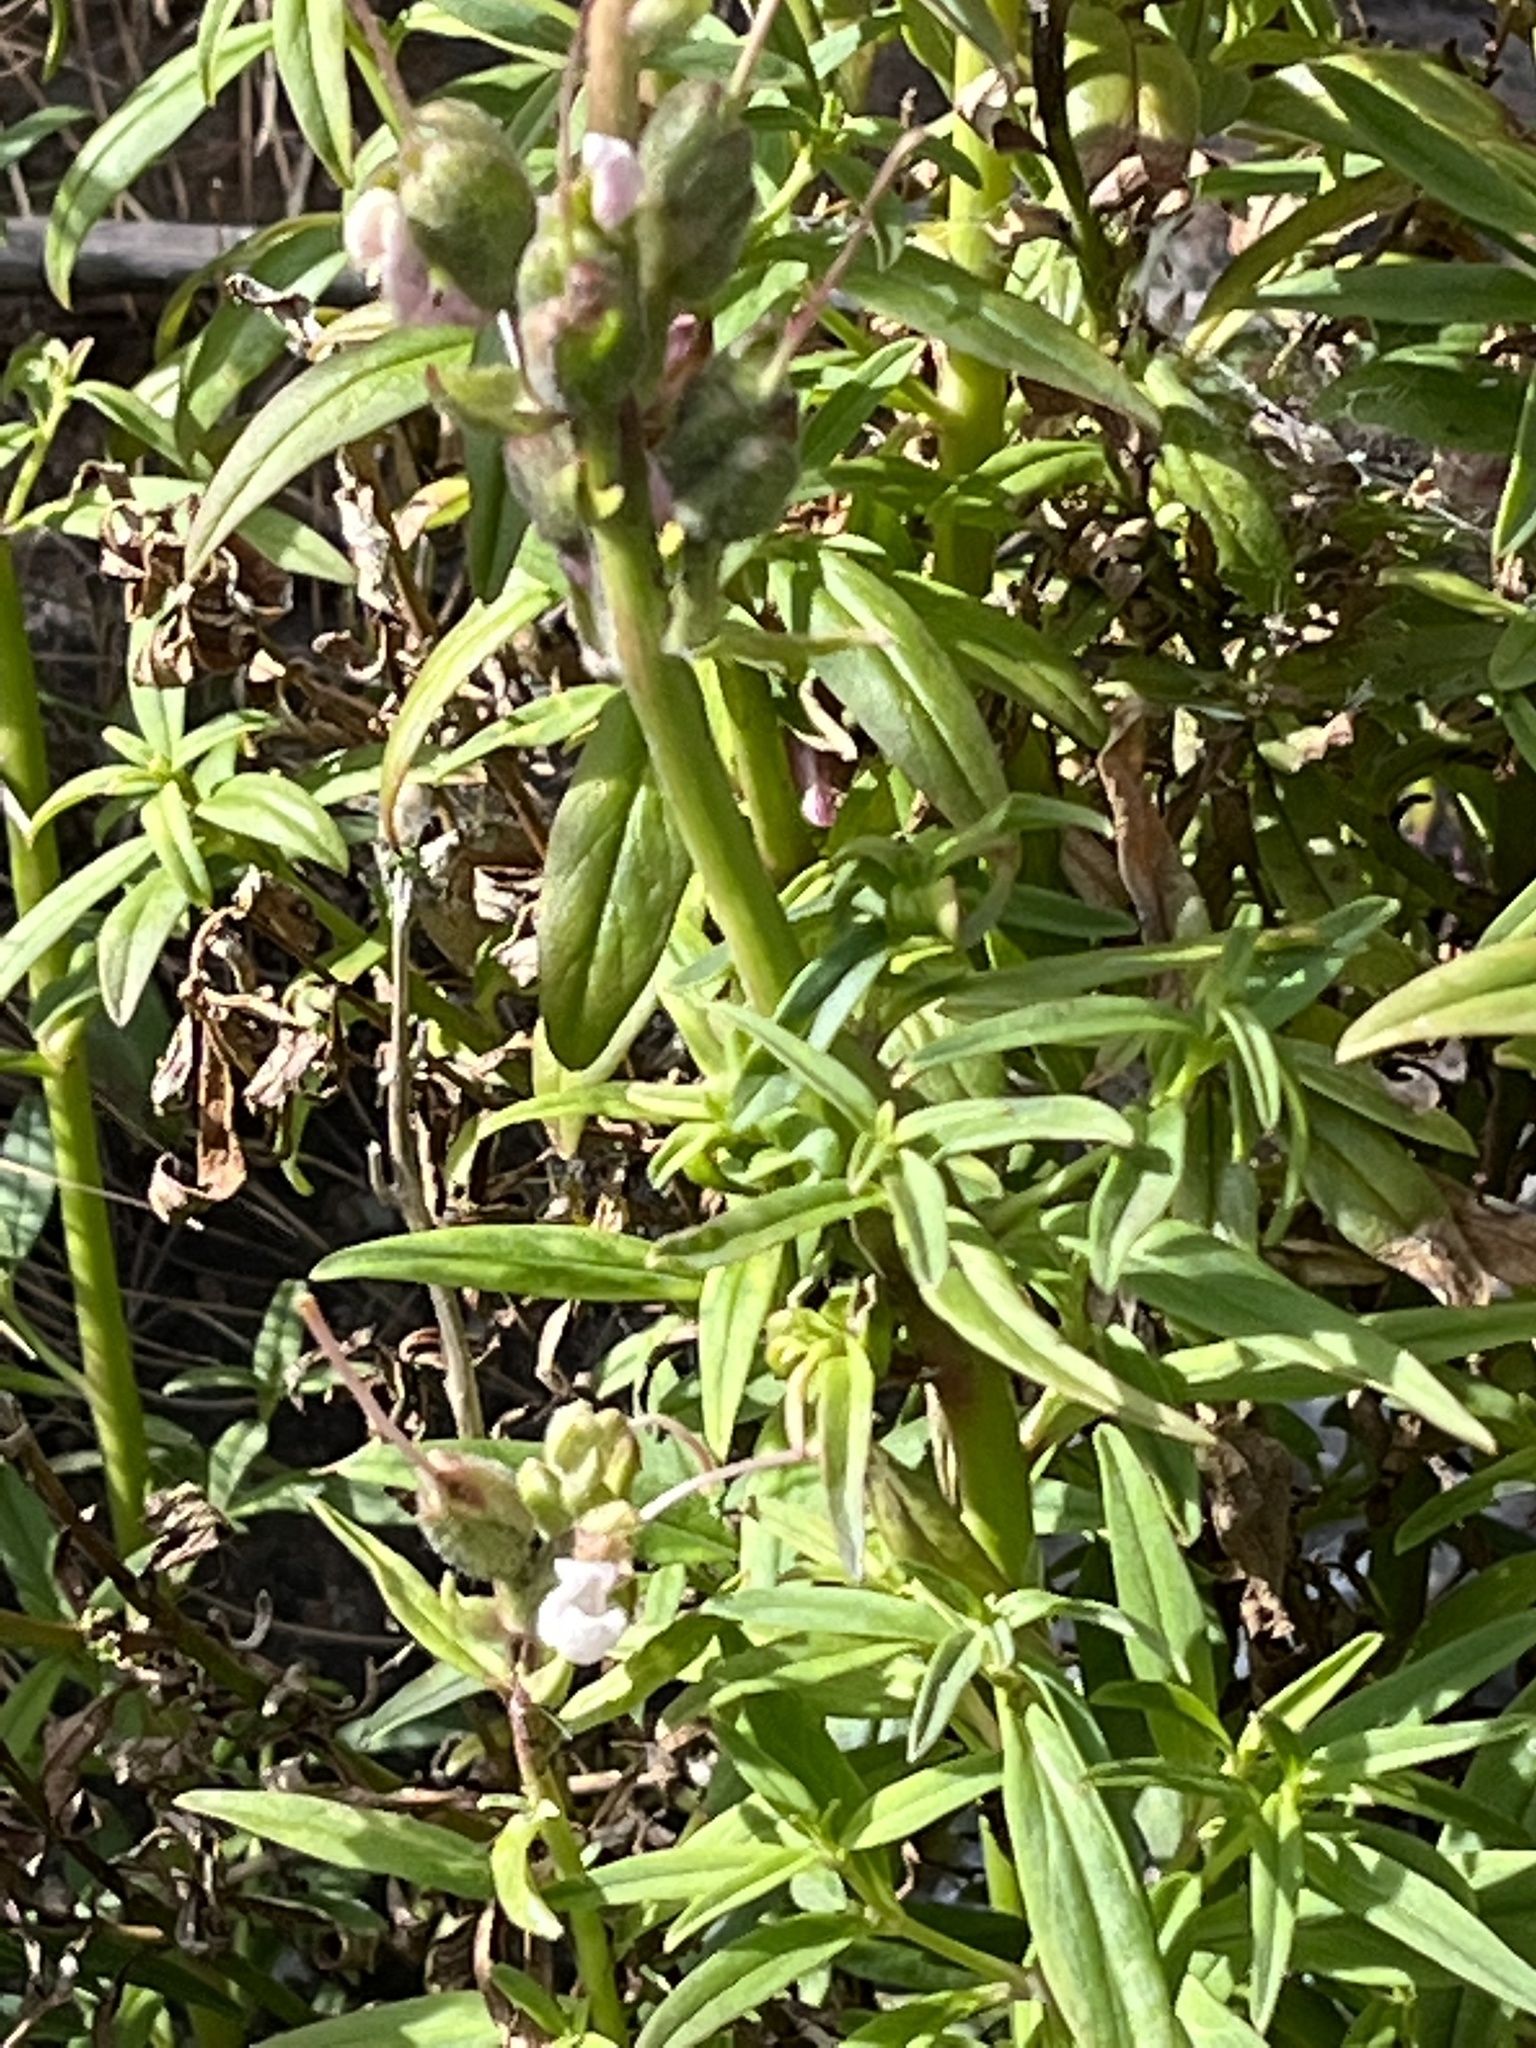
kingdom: Plantae
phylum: Tracheophyta
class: Magnoliopsida
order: Lamiales
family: Plantaginaceae
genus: Antirrhinum
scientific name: Antirrhinum majus
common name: Snapdragon
